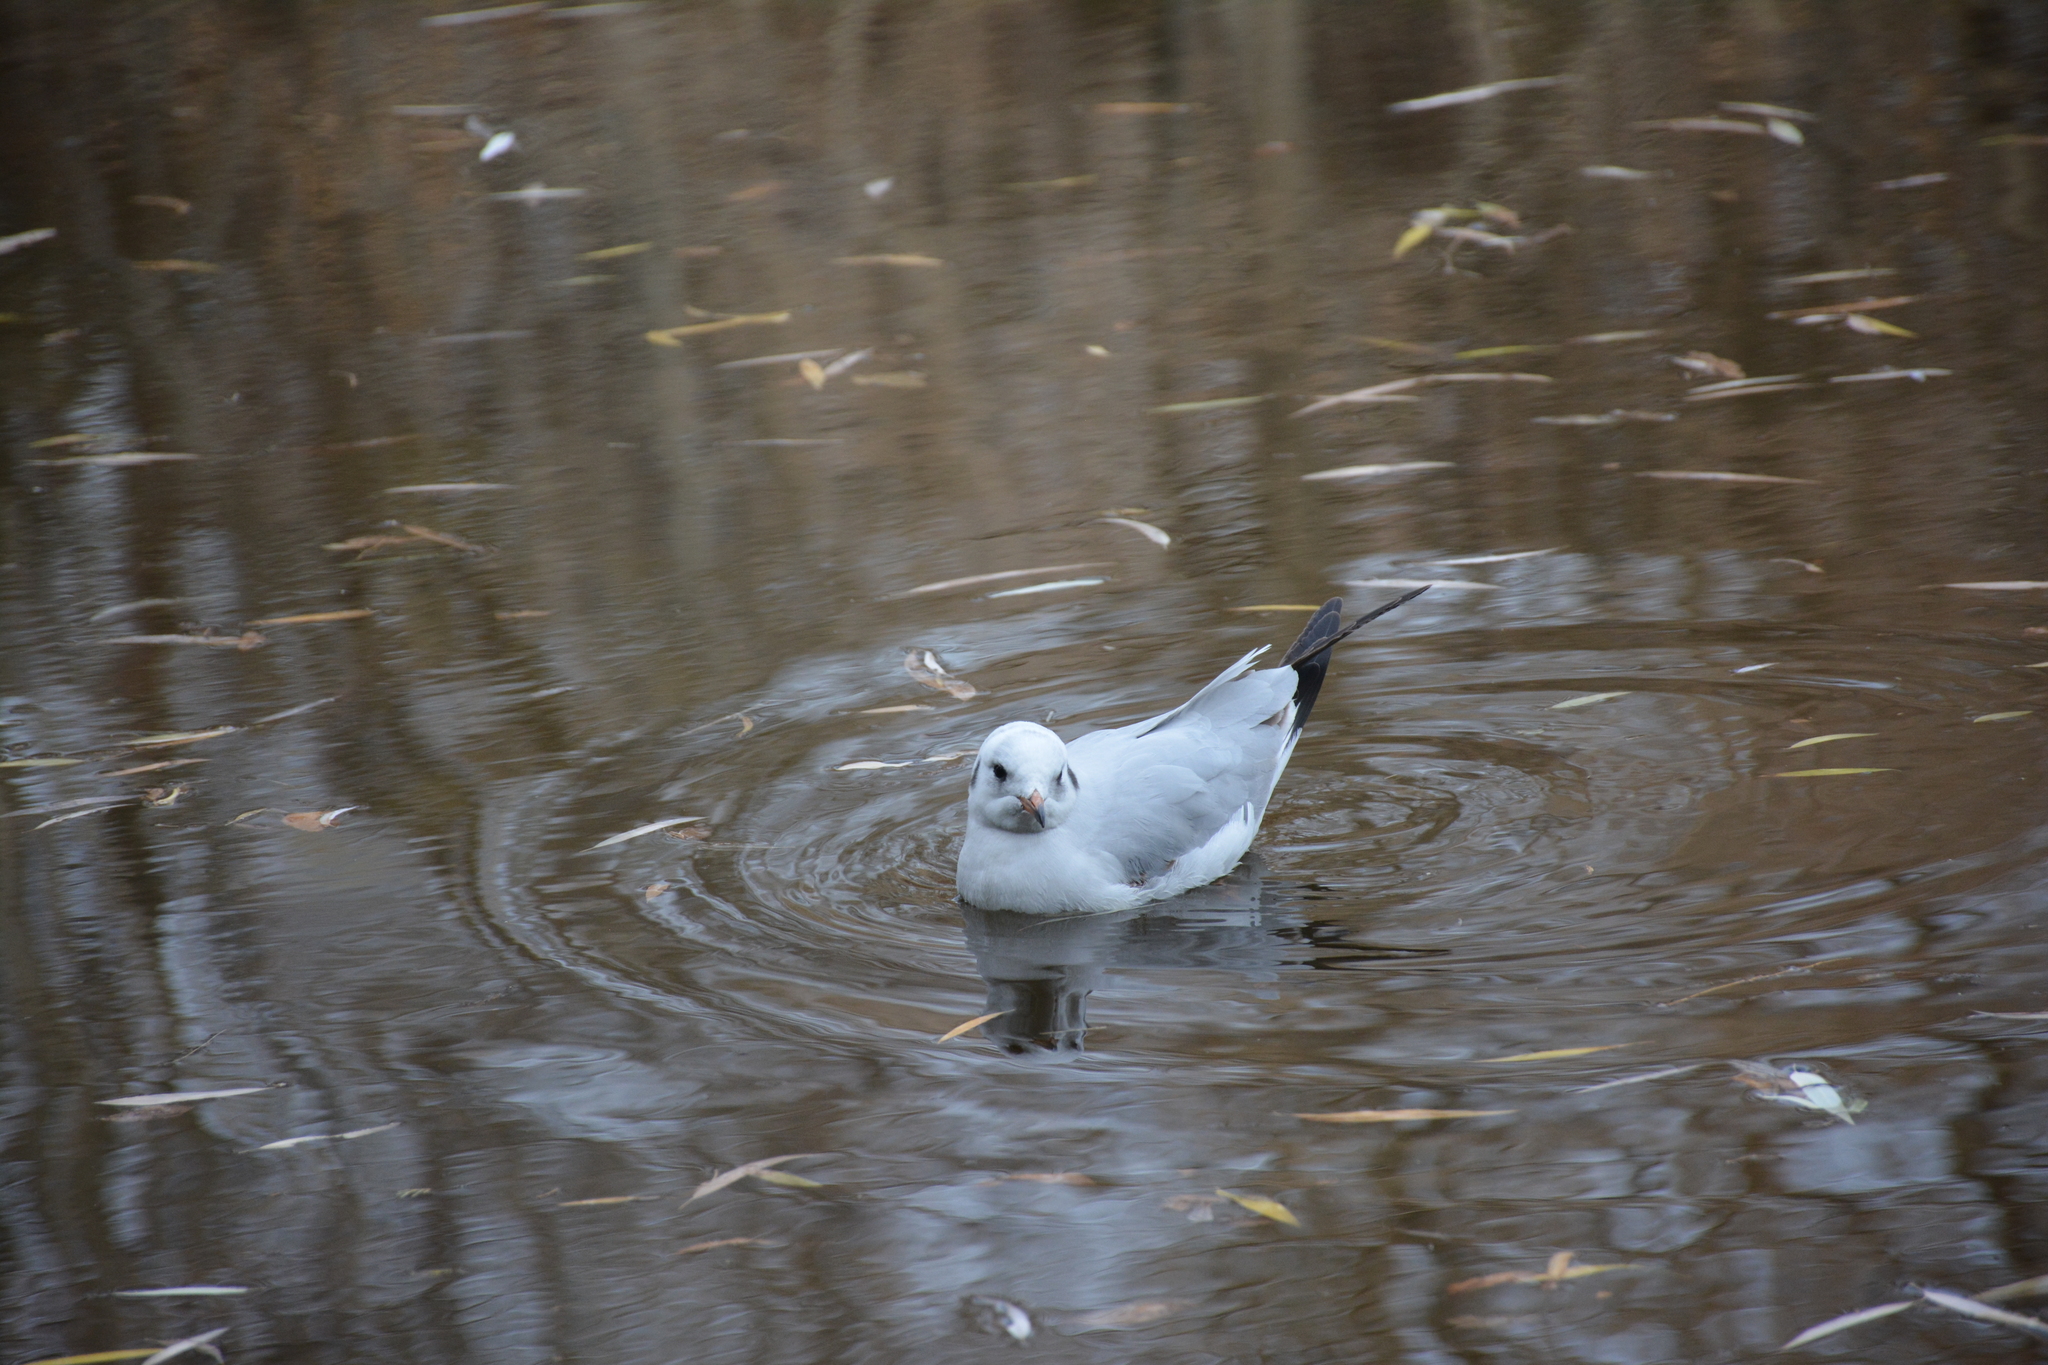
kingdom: Animalia
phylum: Chordata
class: Aves
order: Charadriiformes
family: Laridae
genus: Chroicocephalus
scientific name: Chroicocephalus ridibundus
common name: Black-headed gull
